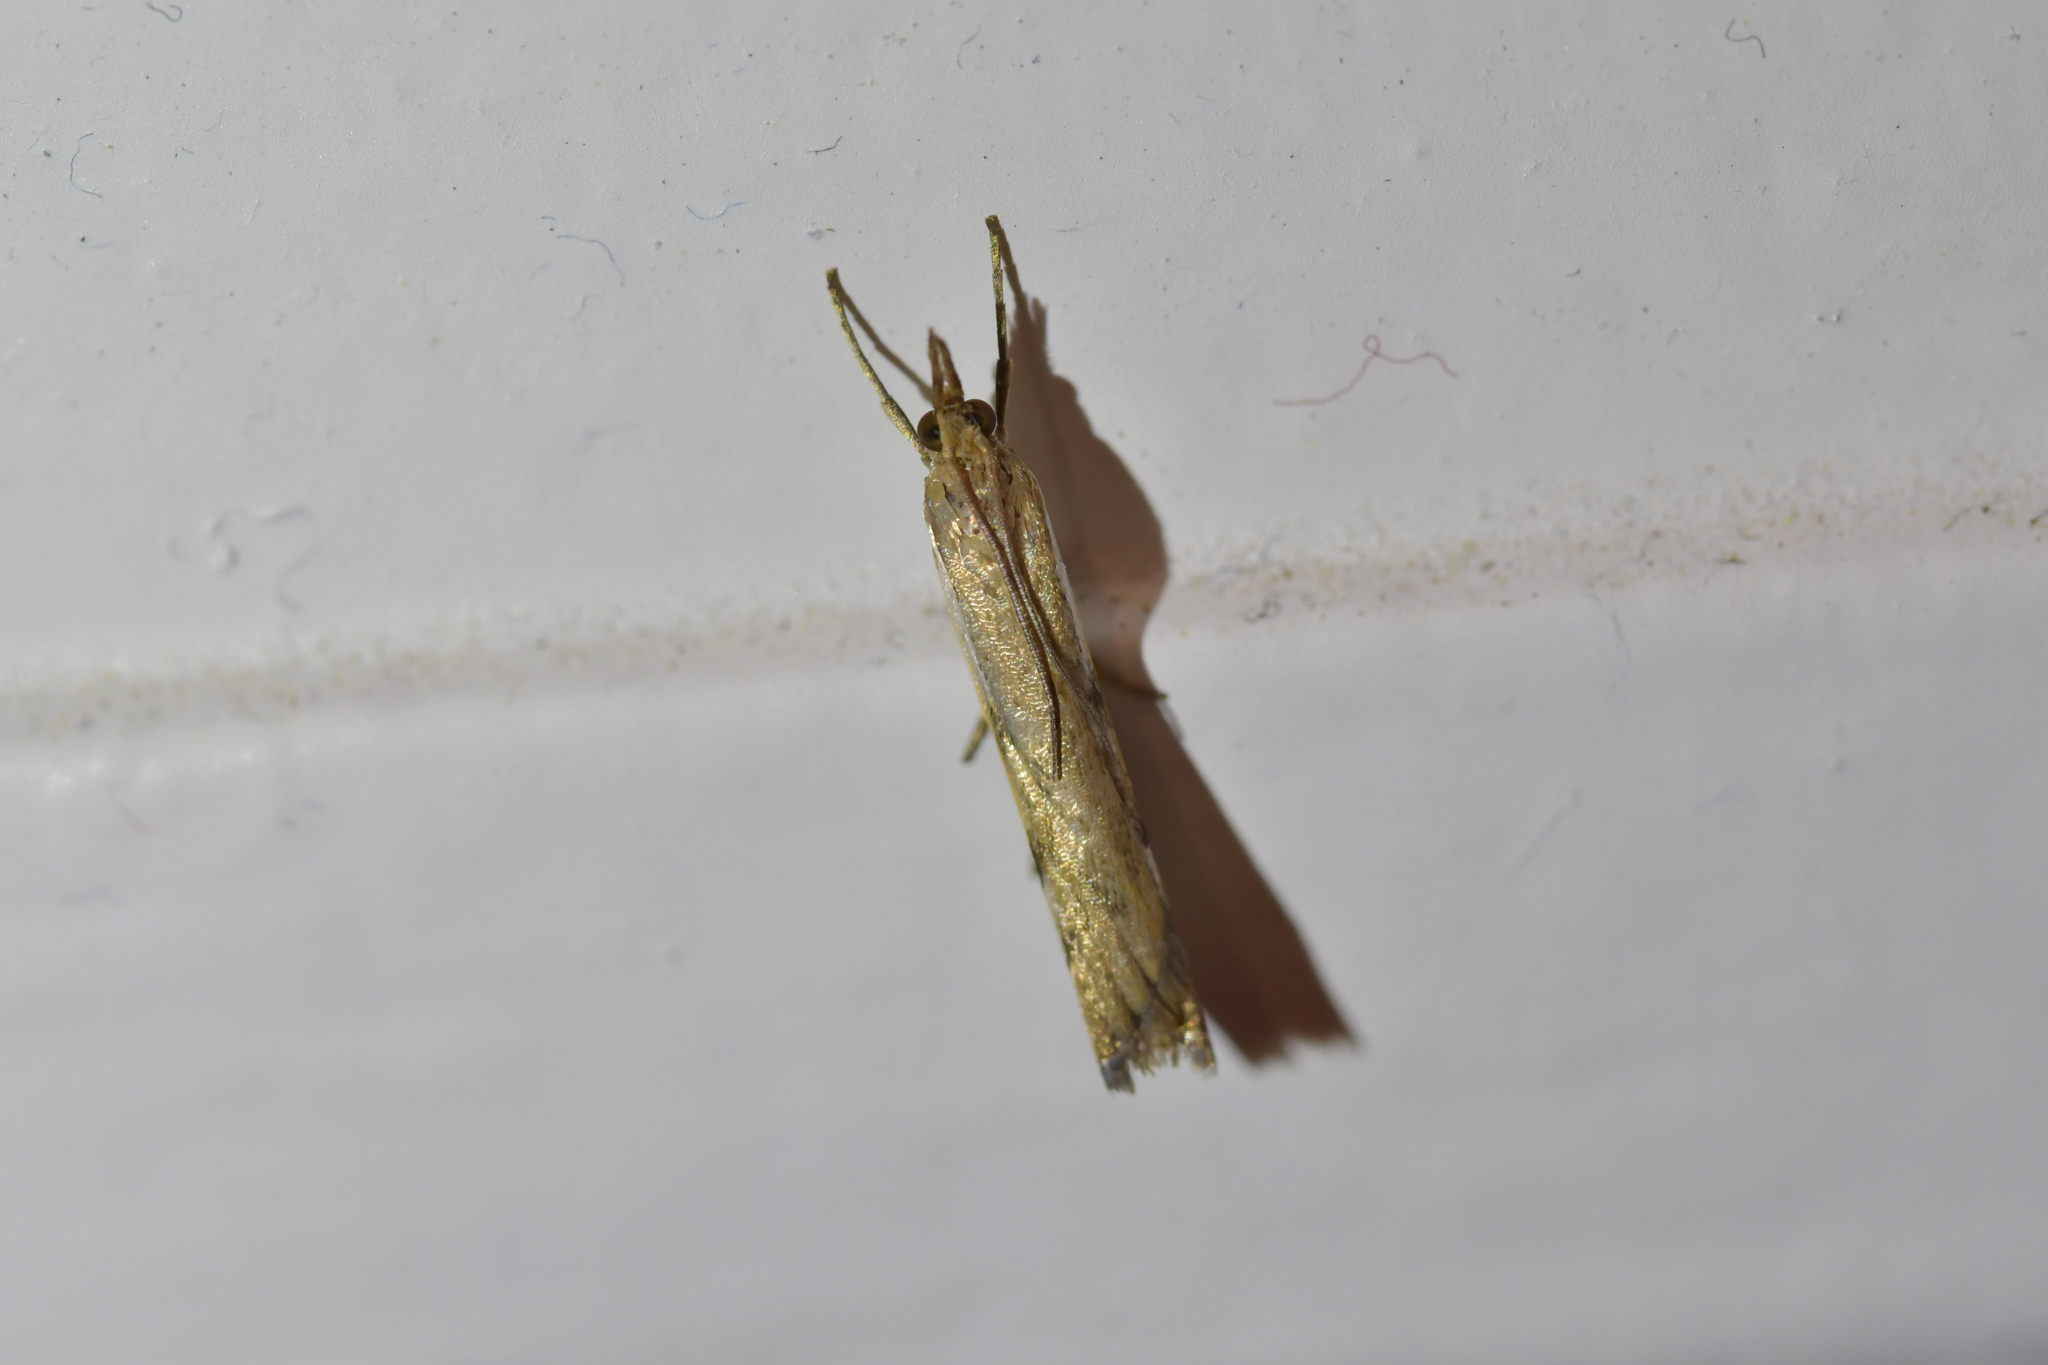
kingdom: Animalia
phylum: Arthropoda
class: Insecta
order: Lepidoptera
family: Crambidae
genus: Orocrambus
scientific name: Orocrambus flexuosellus
